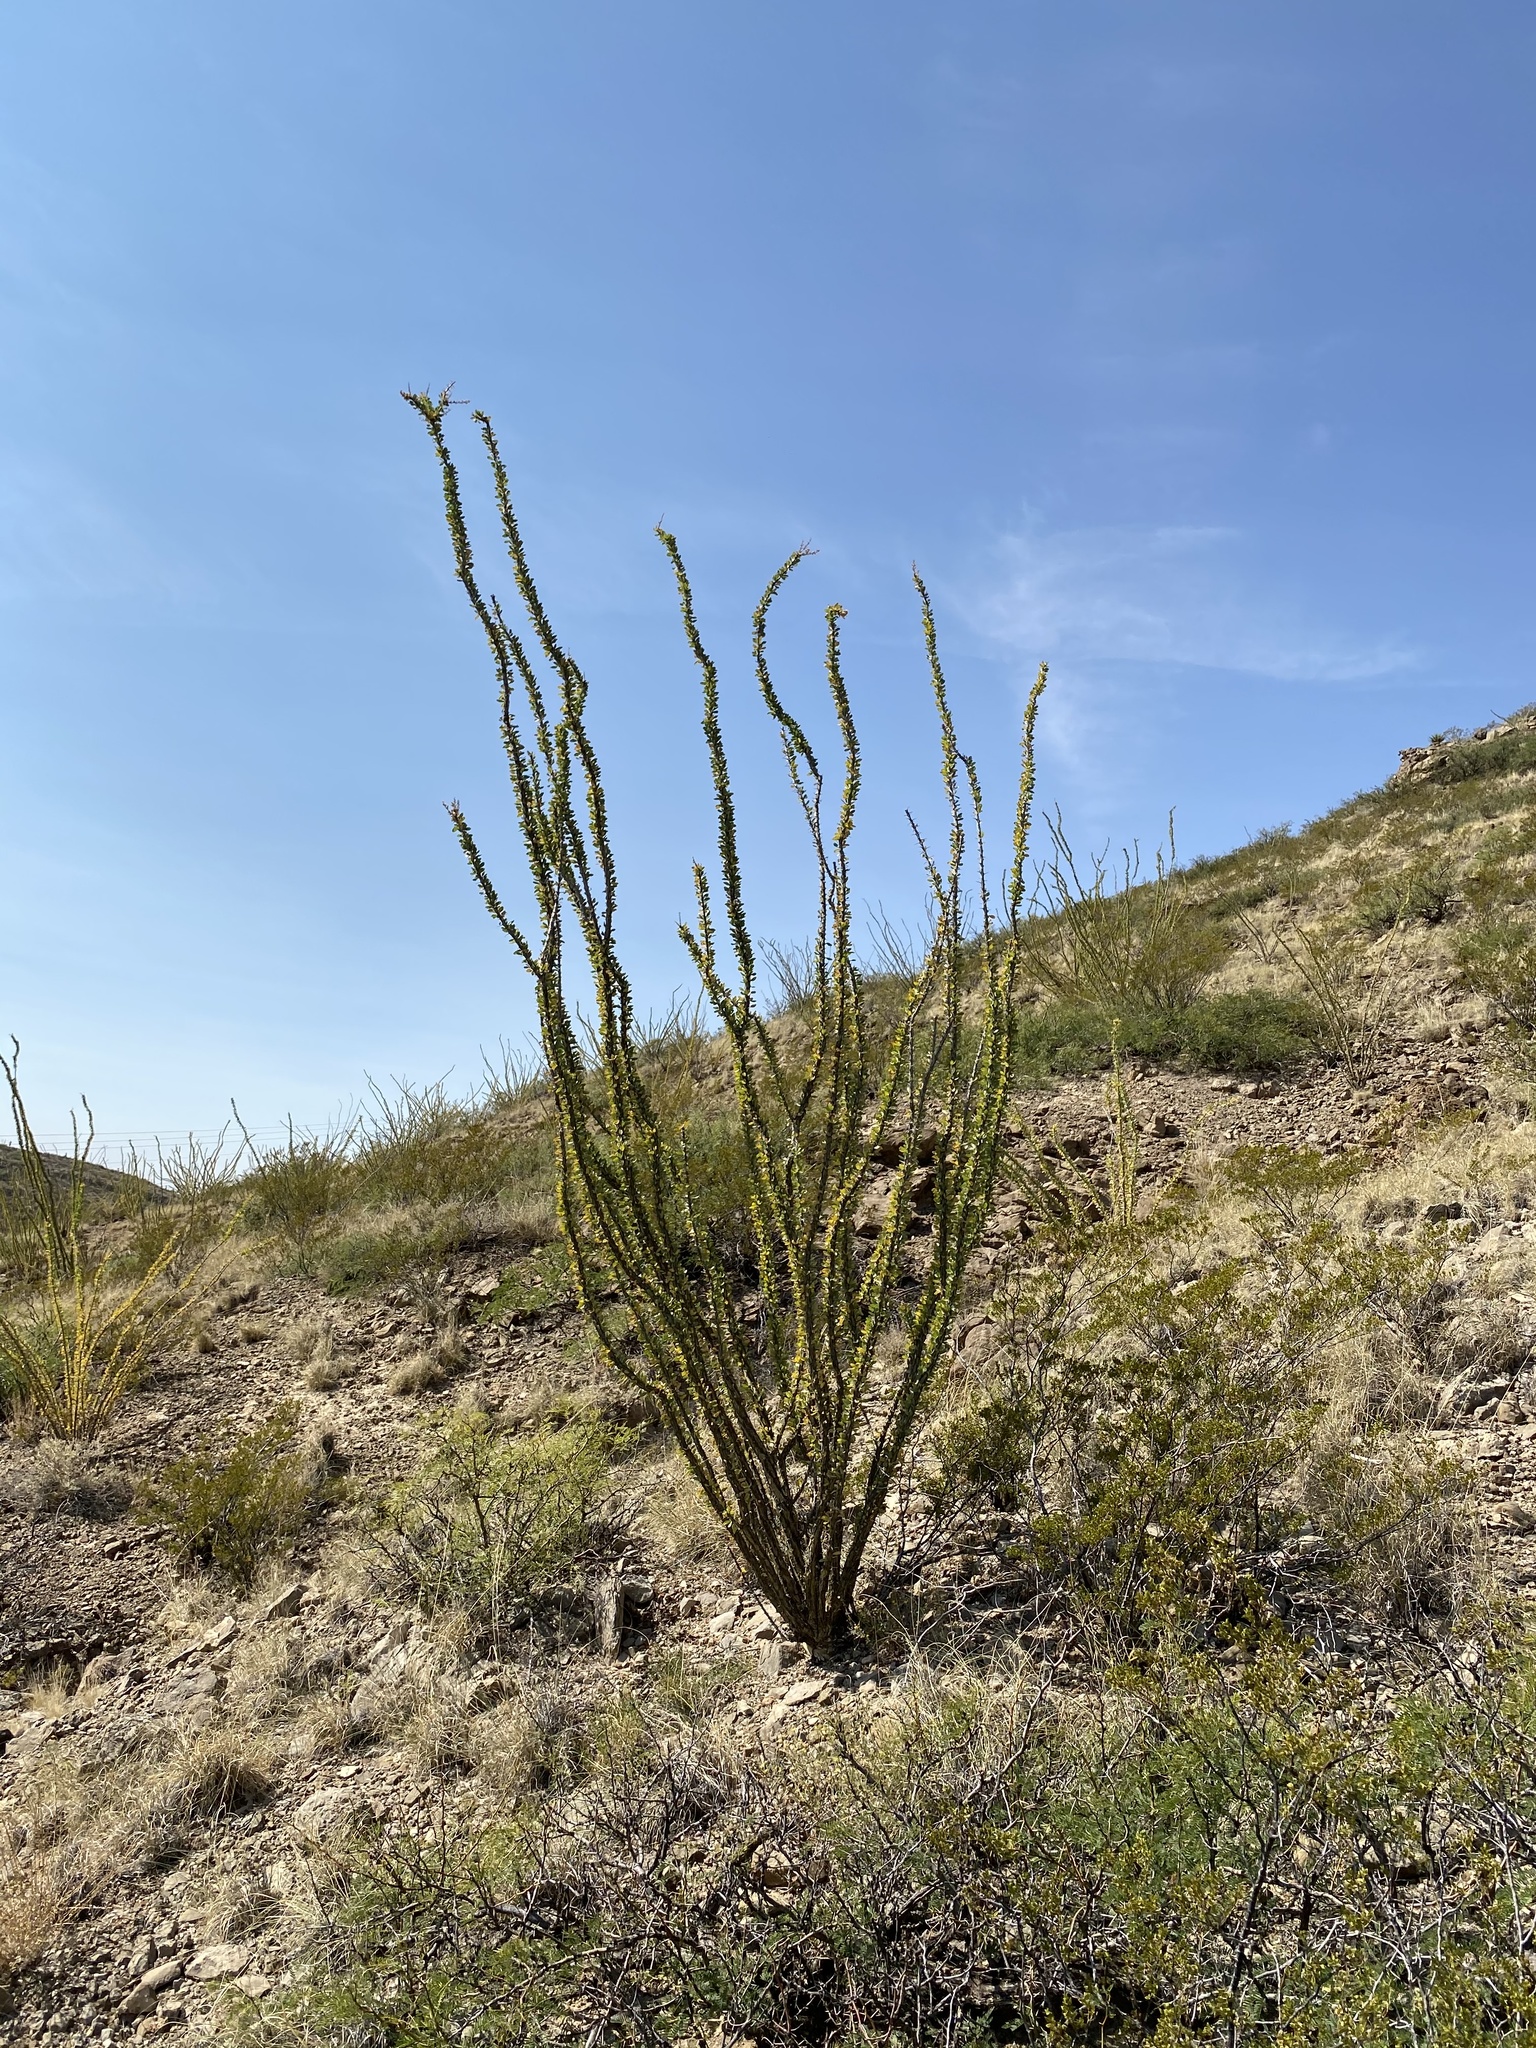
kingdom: Plantae
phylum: Tracheophyta
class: Magnoliopsida
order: Ericales
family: Fouquieriaceae
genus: Fouquieria
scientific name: Fouquieria splendens
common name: Vine-cactus
